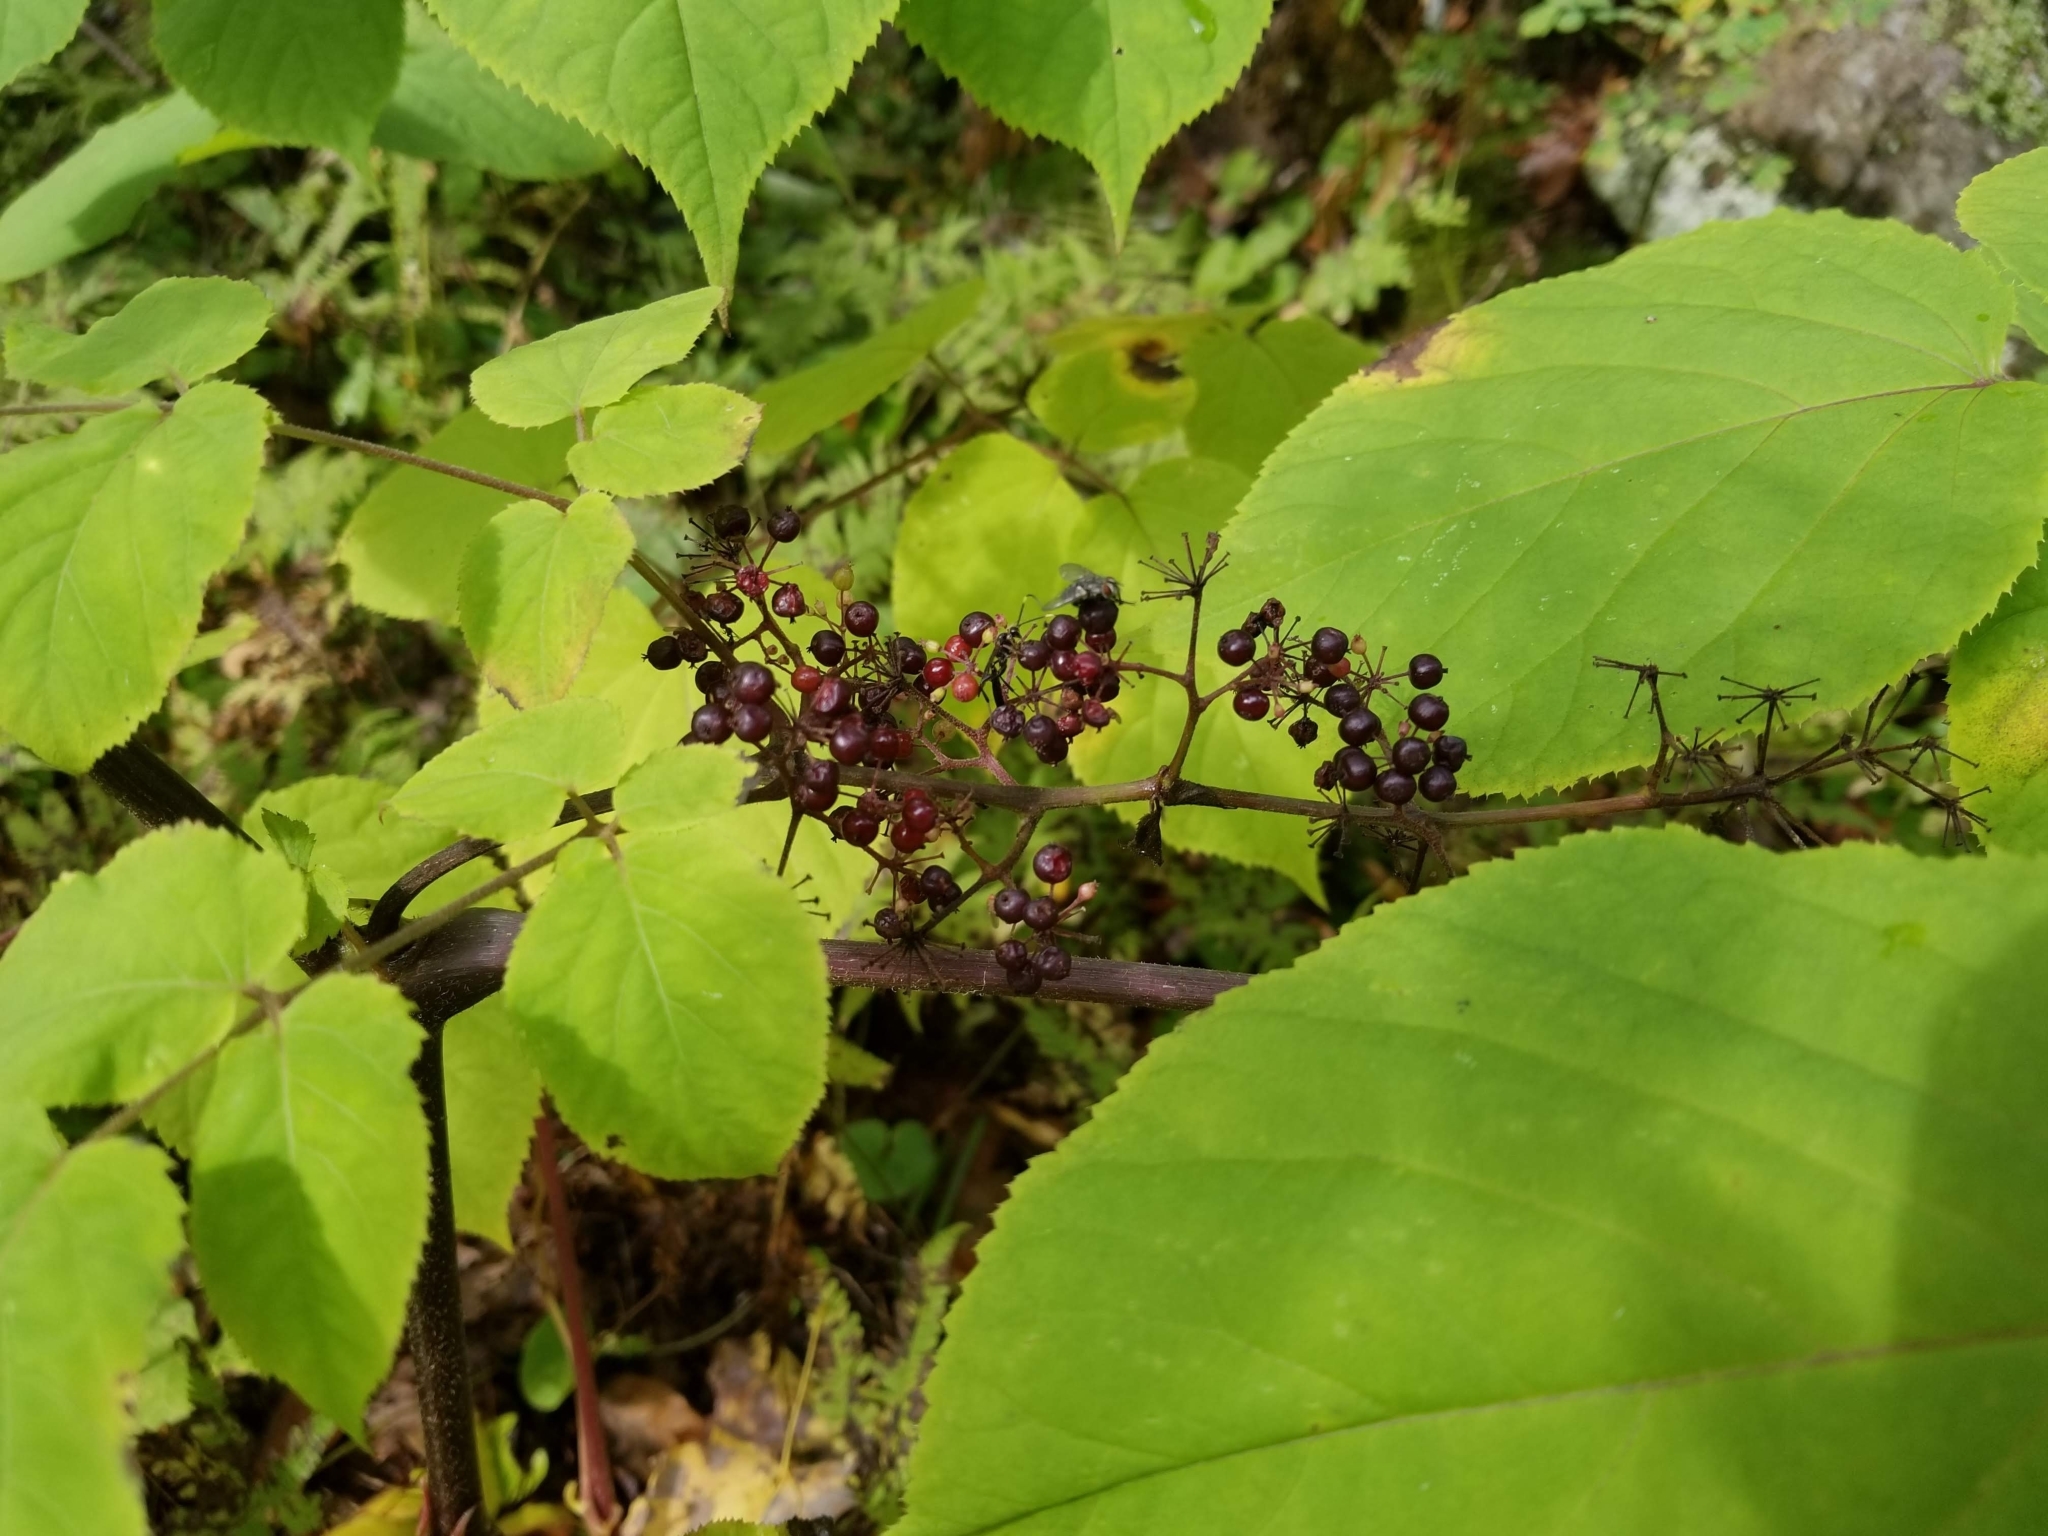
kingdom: Plantae
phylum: Tracheophyta
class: Magnoliopsida
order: Apiales
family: Araliaceae
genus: Aralia
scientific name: Aralia racemosa
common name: American-spikenard
